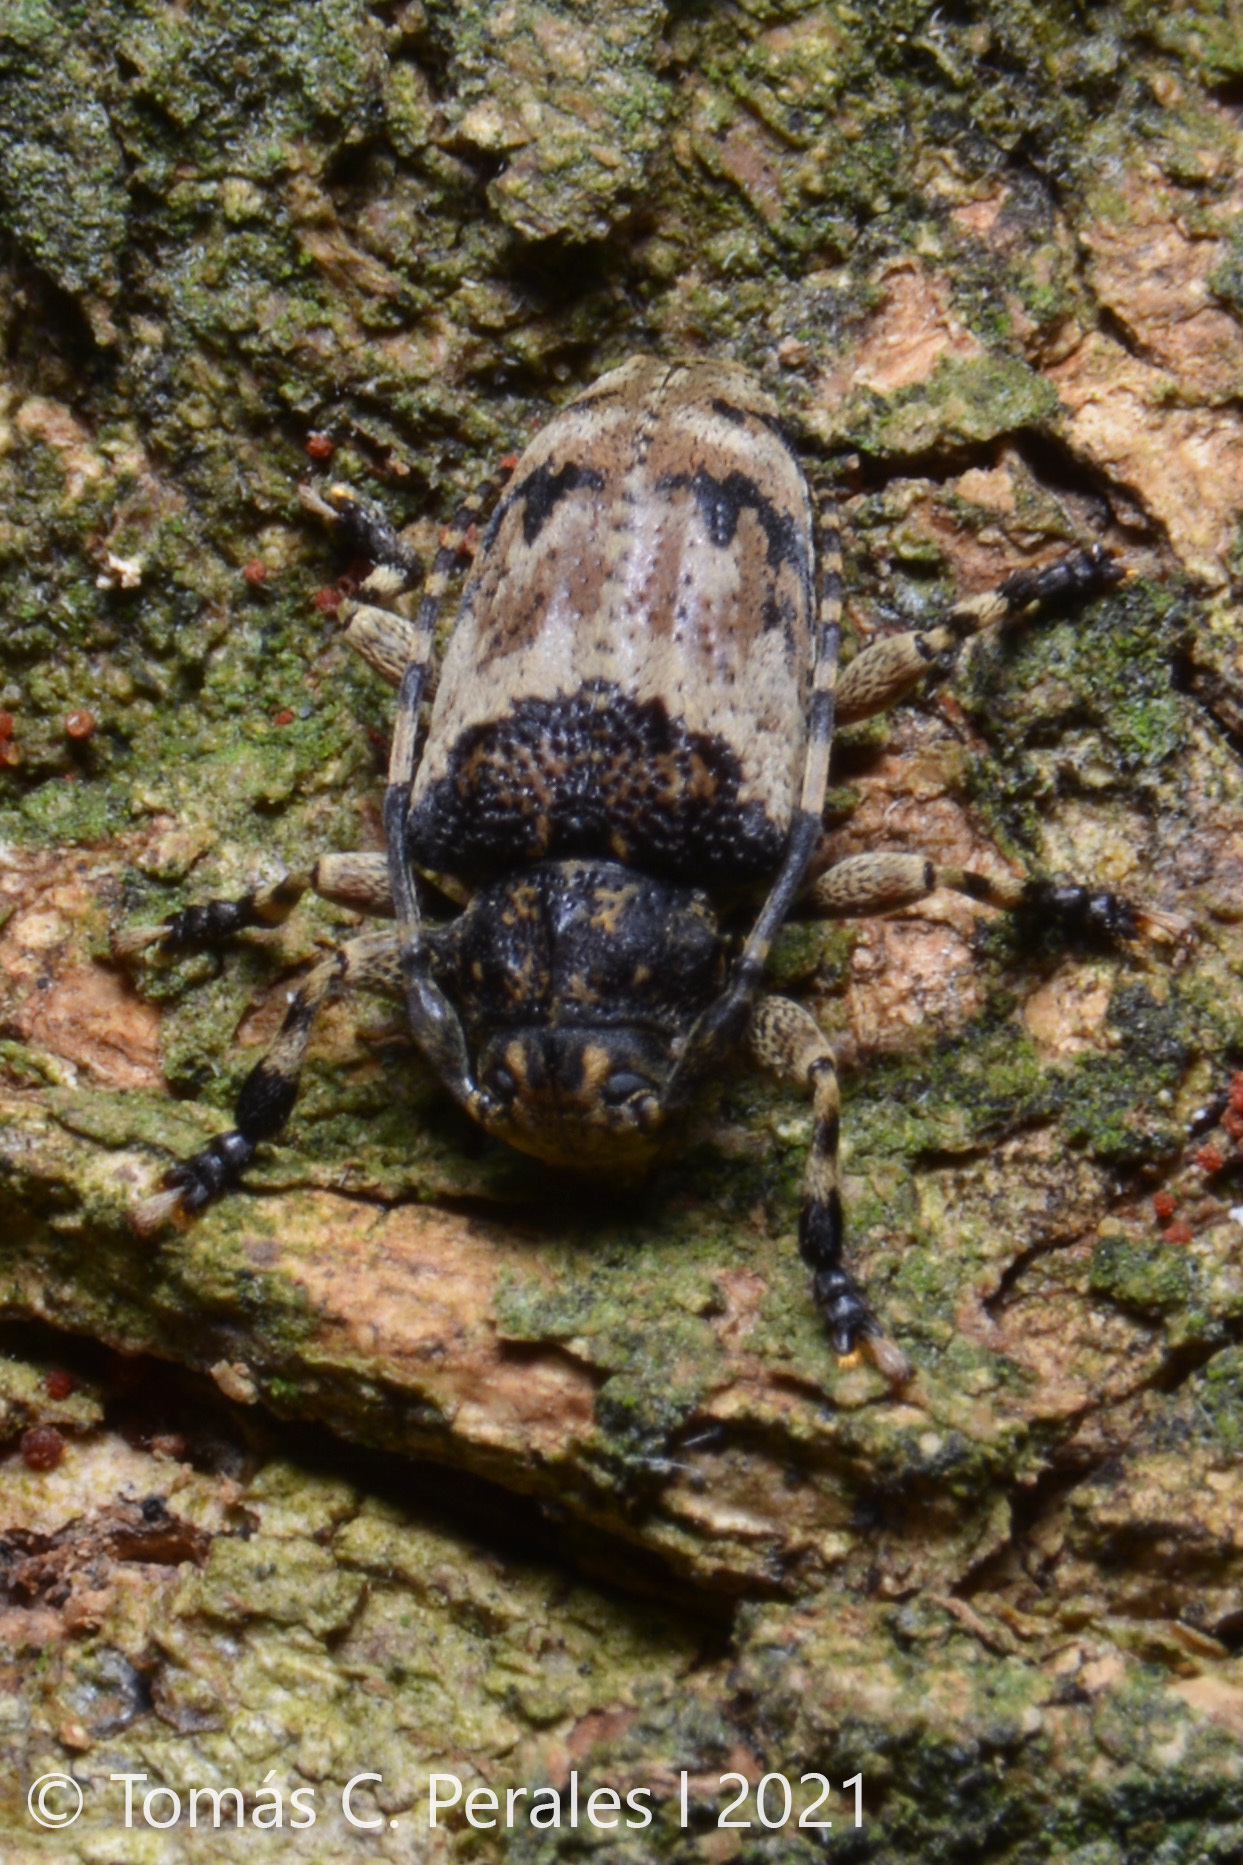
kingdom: Animalia
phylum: Arthropoda
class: Insecta
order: Coleoptera
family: Cerambycidae
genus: Eupromerella
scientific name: Eupromerella semigrisea
